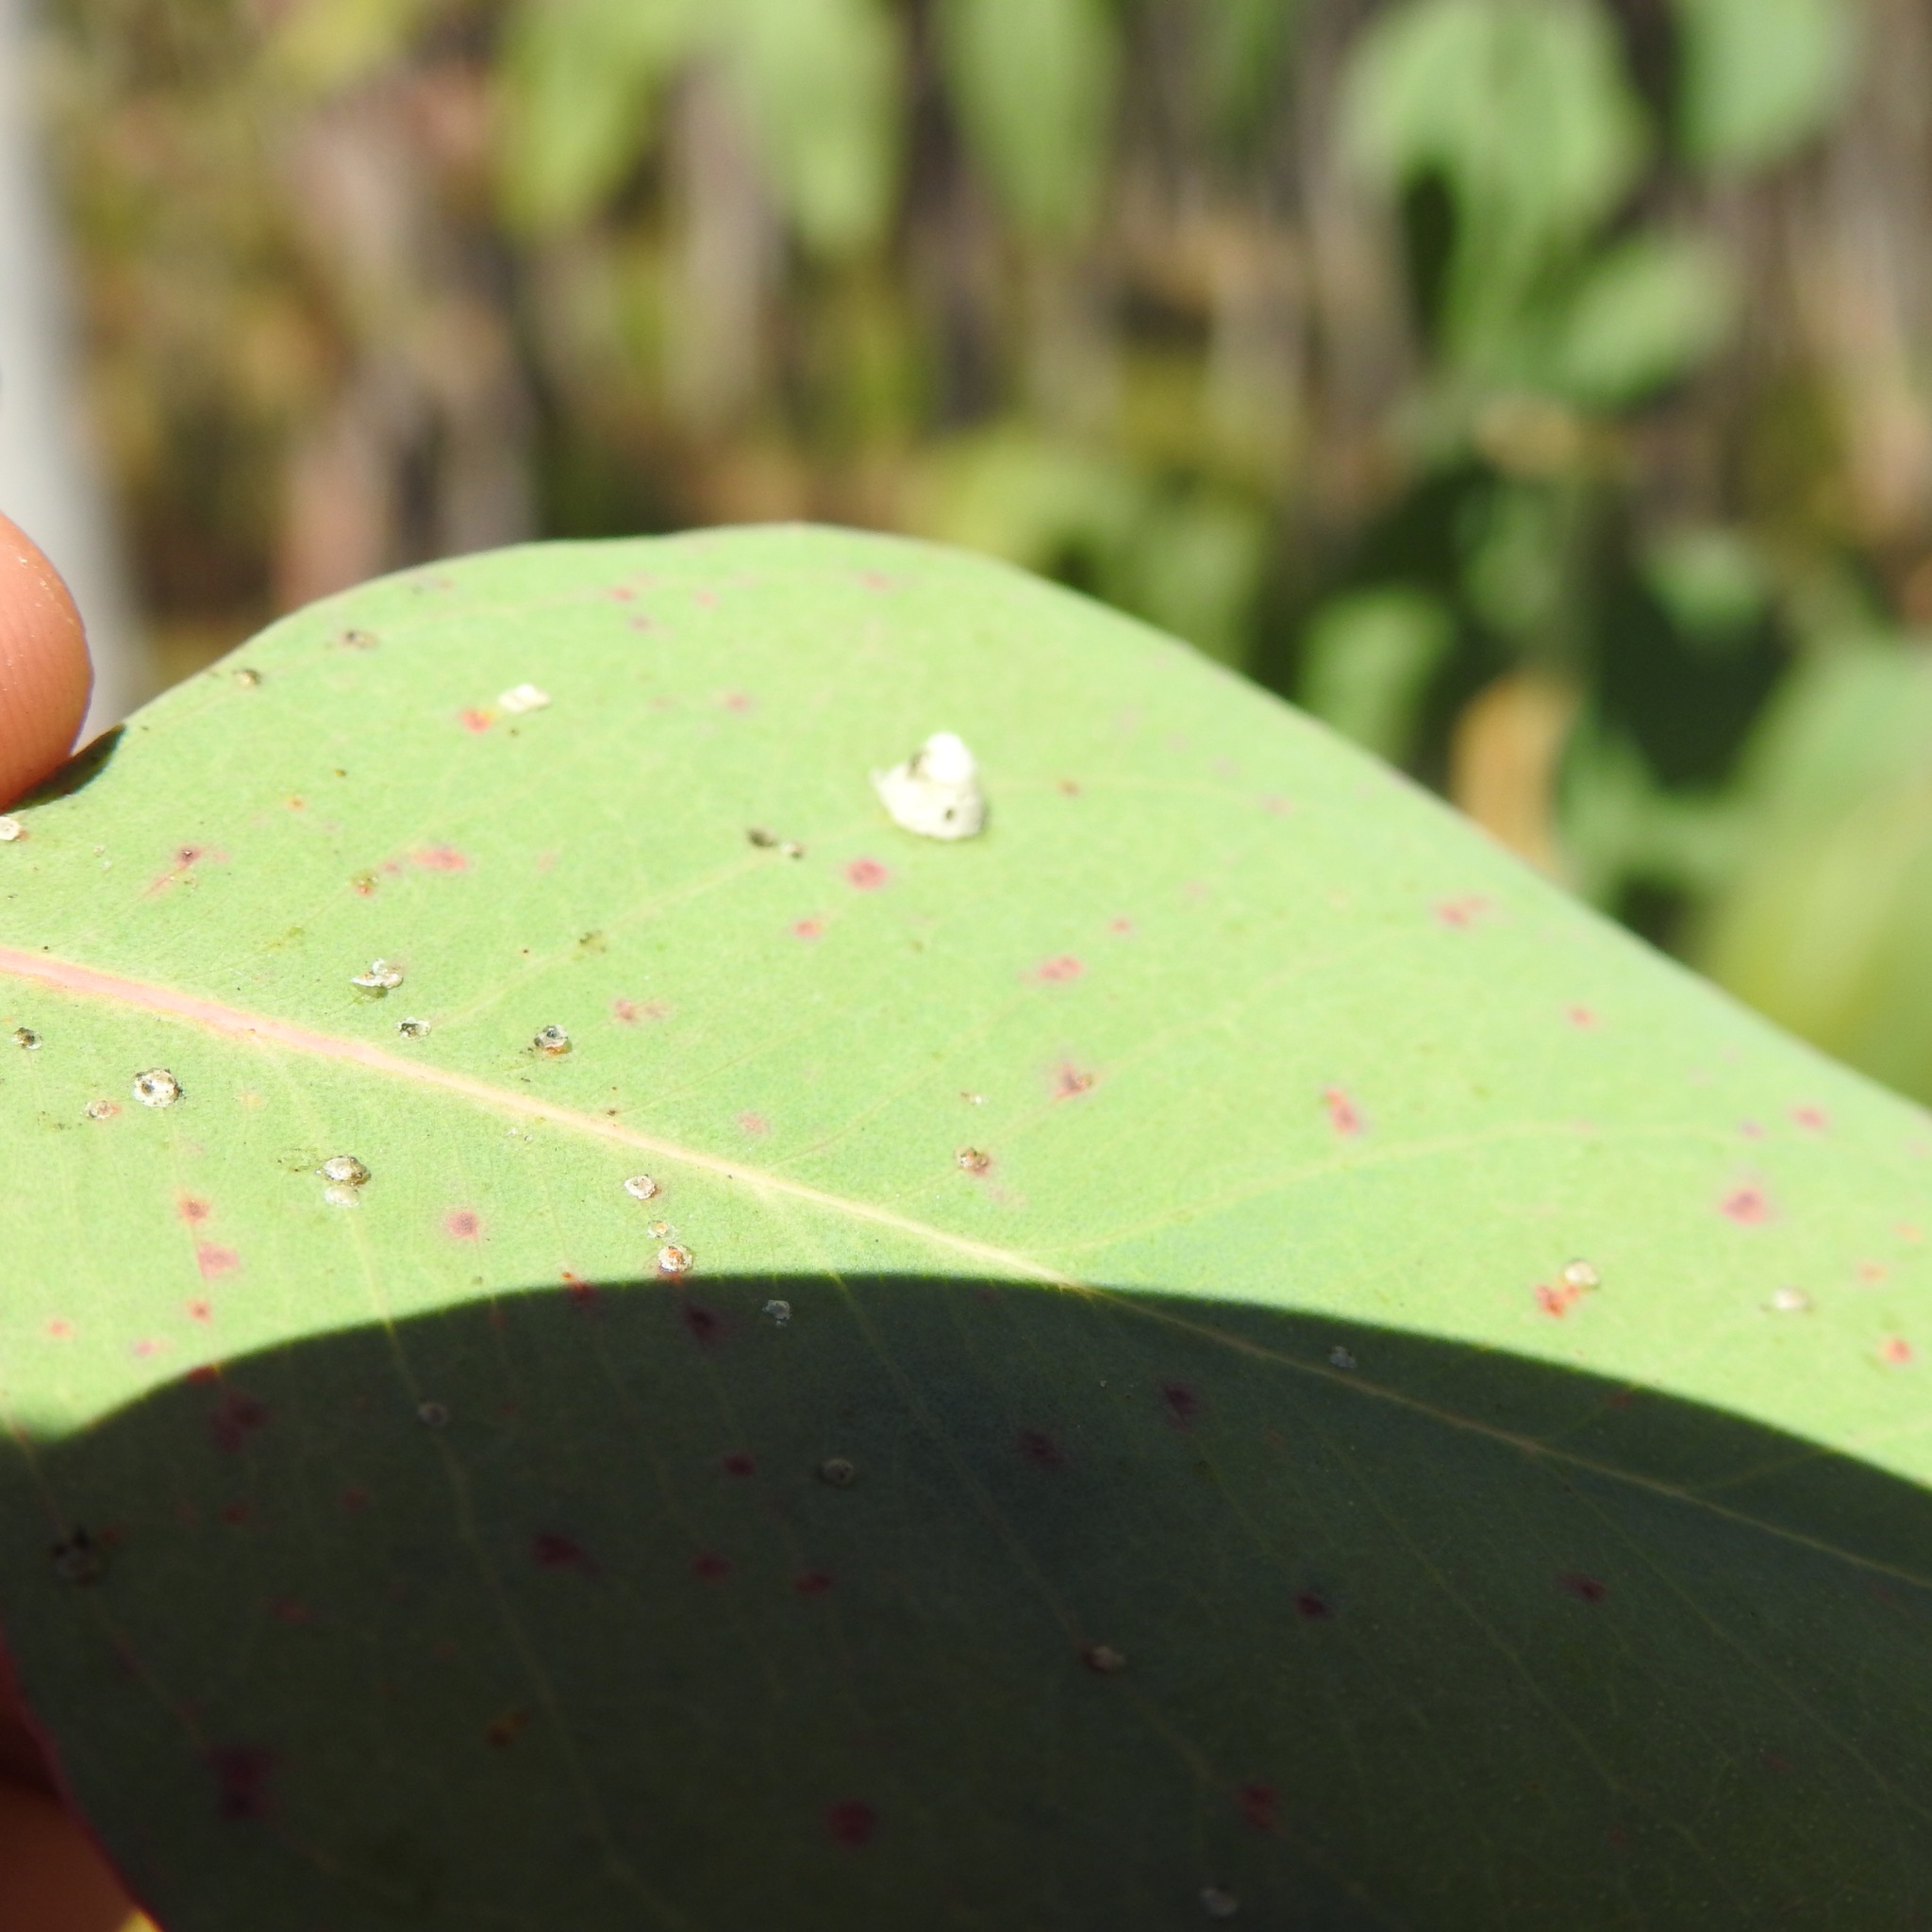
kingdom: Animalia
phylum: Arthropoda
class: Insecta
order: Hemiptera
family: Aphalaridae
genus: Glycaspis
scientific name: Glycaspis brimblecombei
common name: Red gum lerp psyllid
